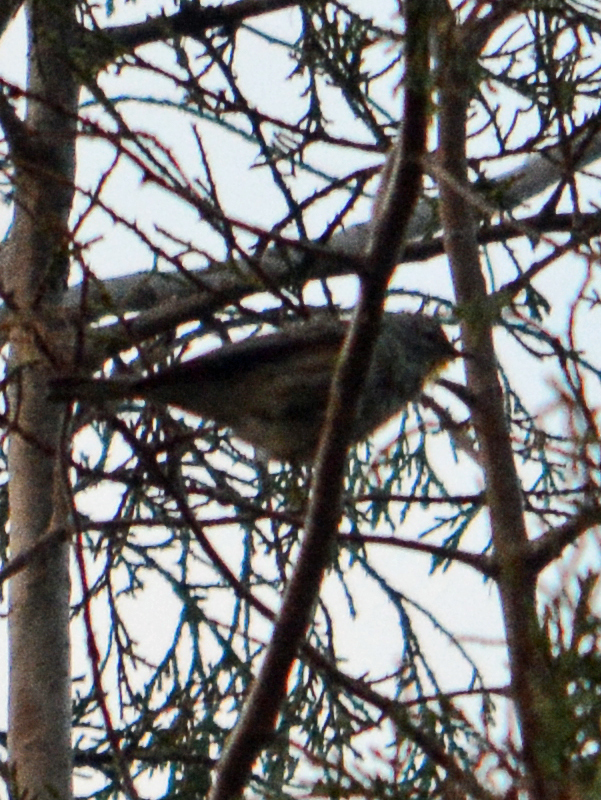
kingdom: Animalia
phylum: Chordata
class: Aves
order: Passeriformes
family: Parulidae
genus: Setophaga
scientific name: Setophaga coronata
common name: Myrtle warbler
